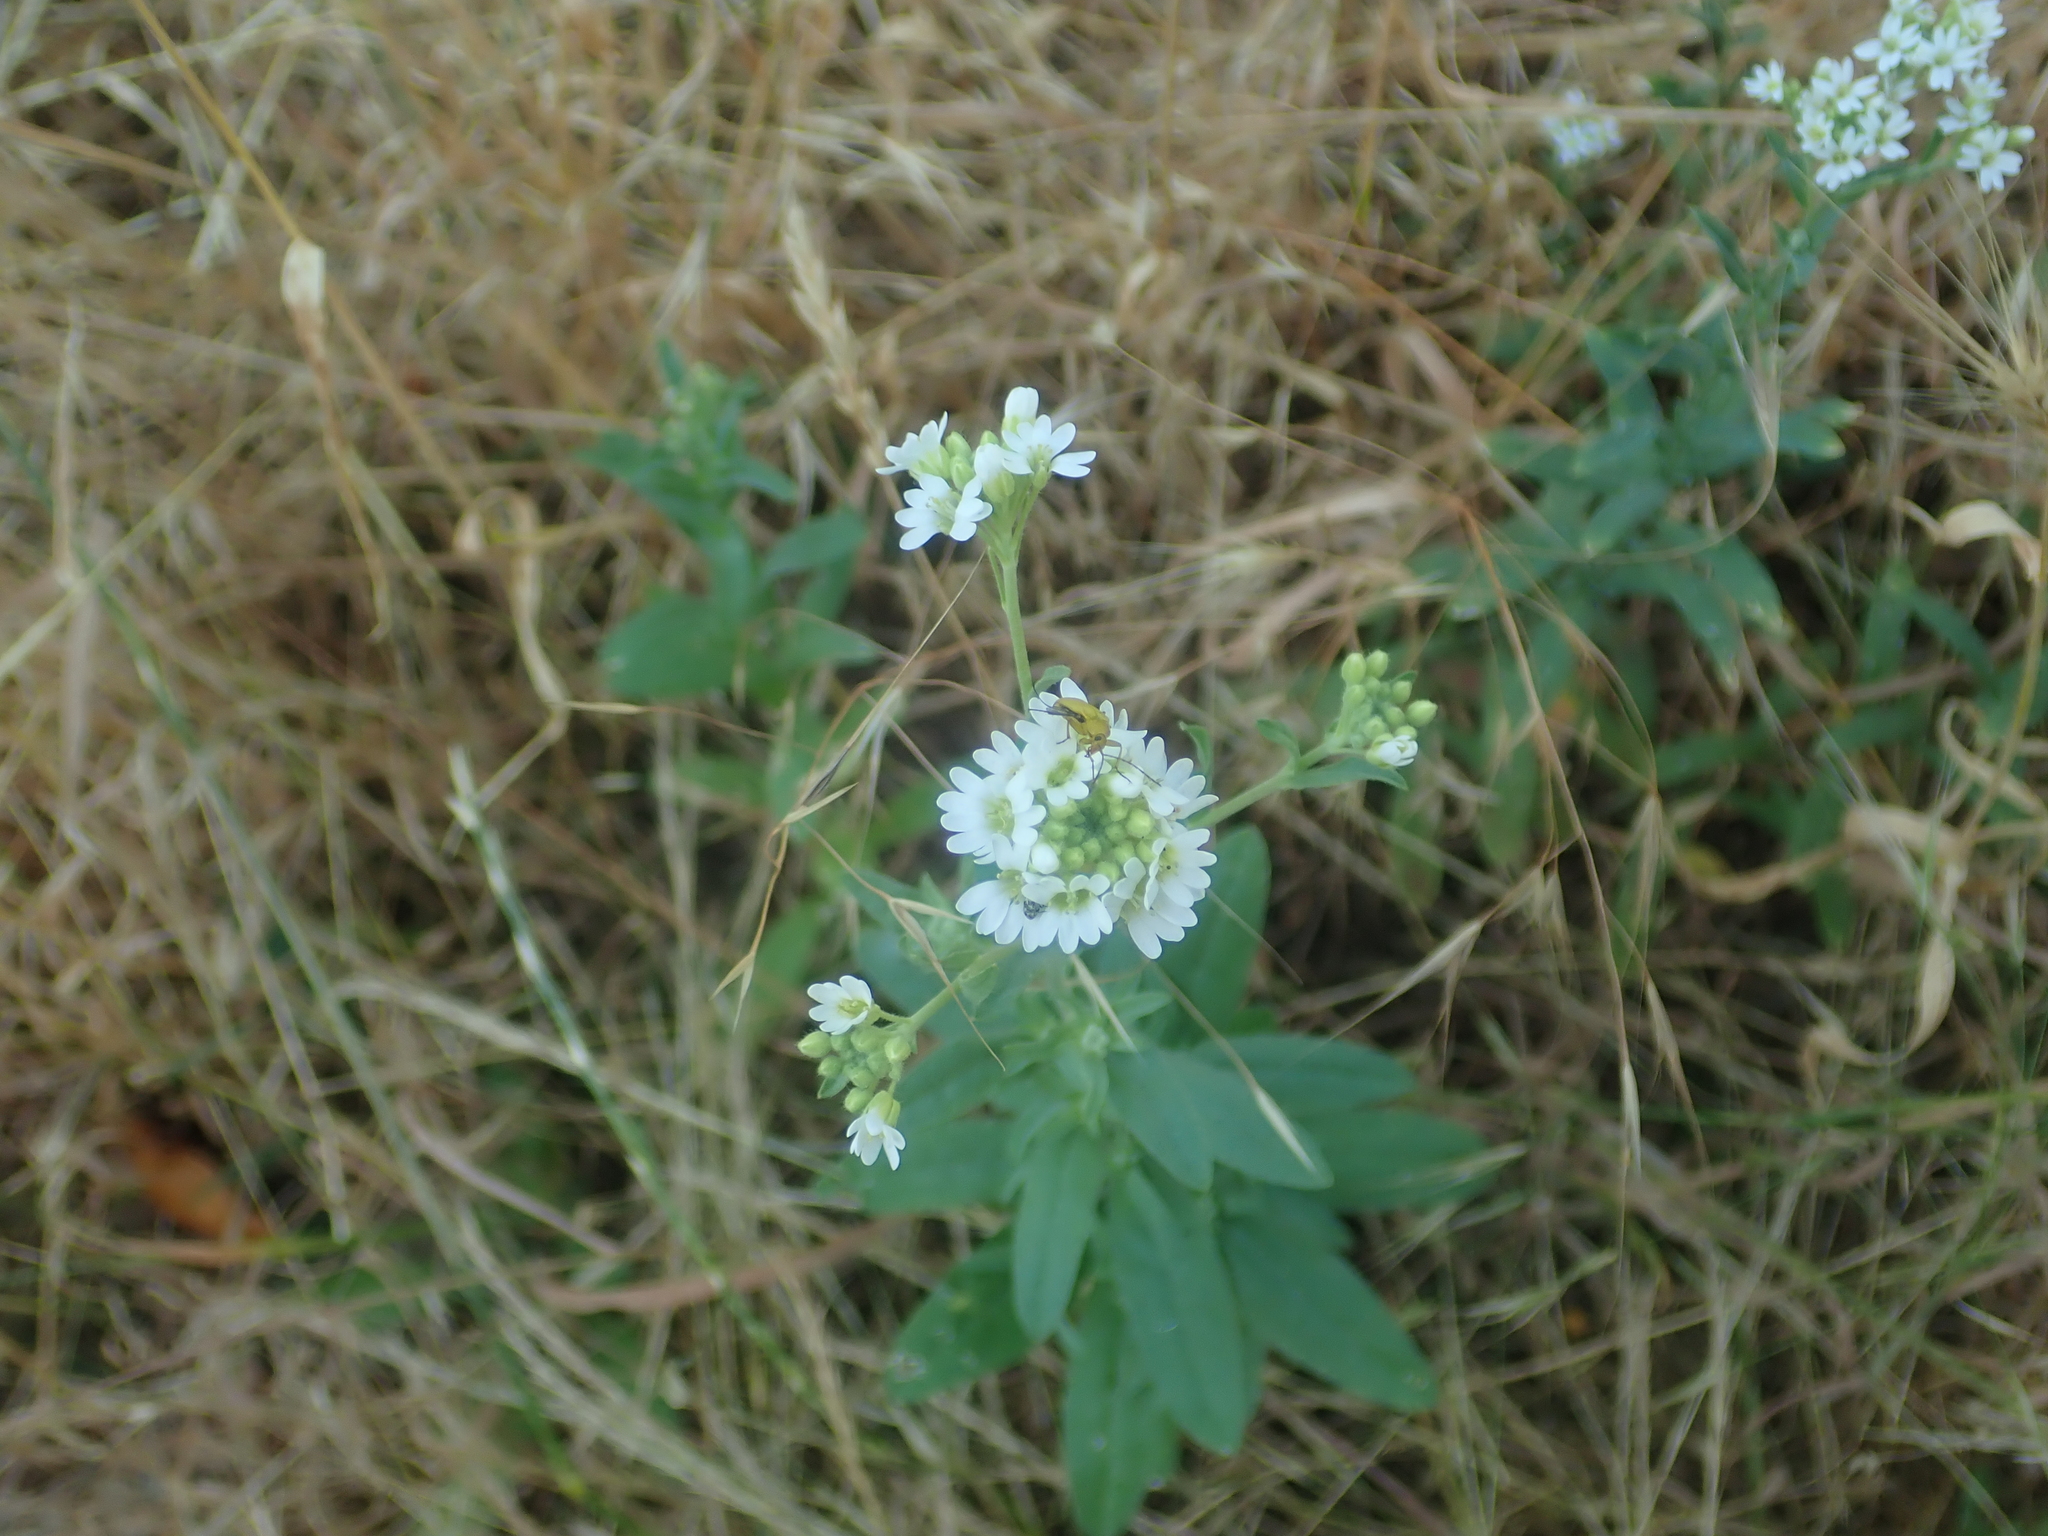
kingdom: Plantae
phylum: Tracheophyta
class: Magnoliopsida
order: Brassicales
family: Brassicaceae
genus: Berteroa
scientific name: Berteroa incana
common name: Hoary alison
